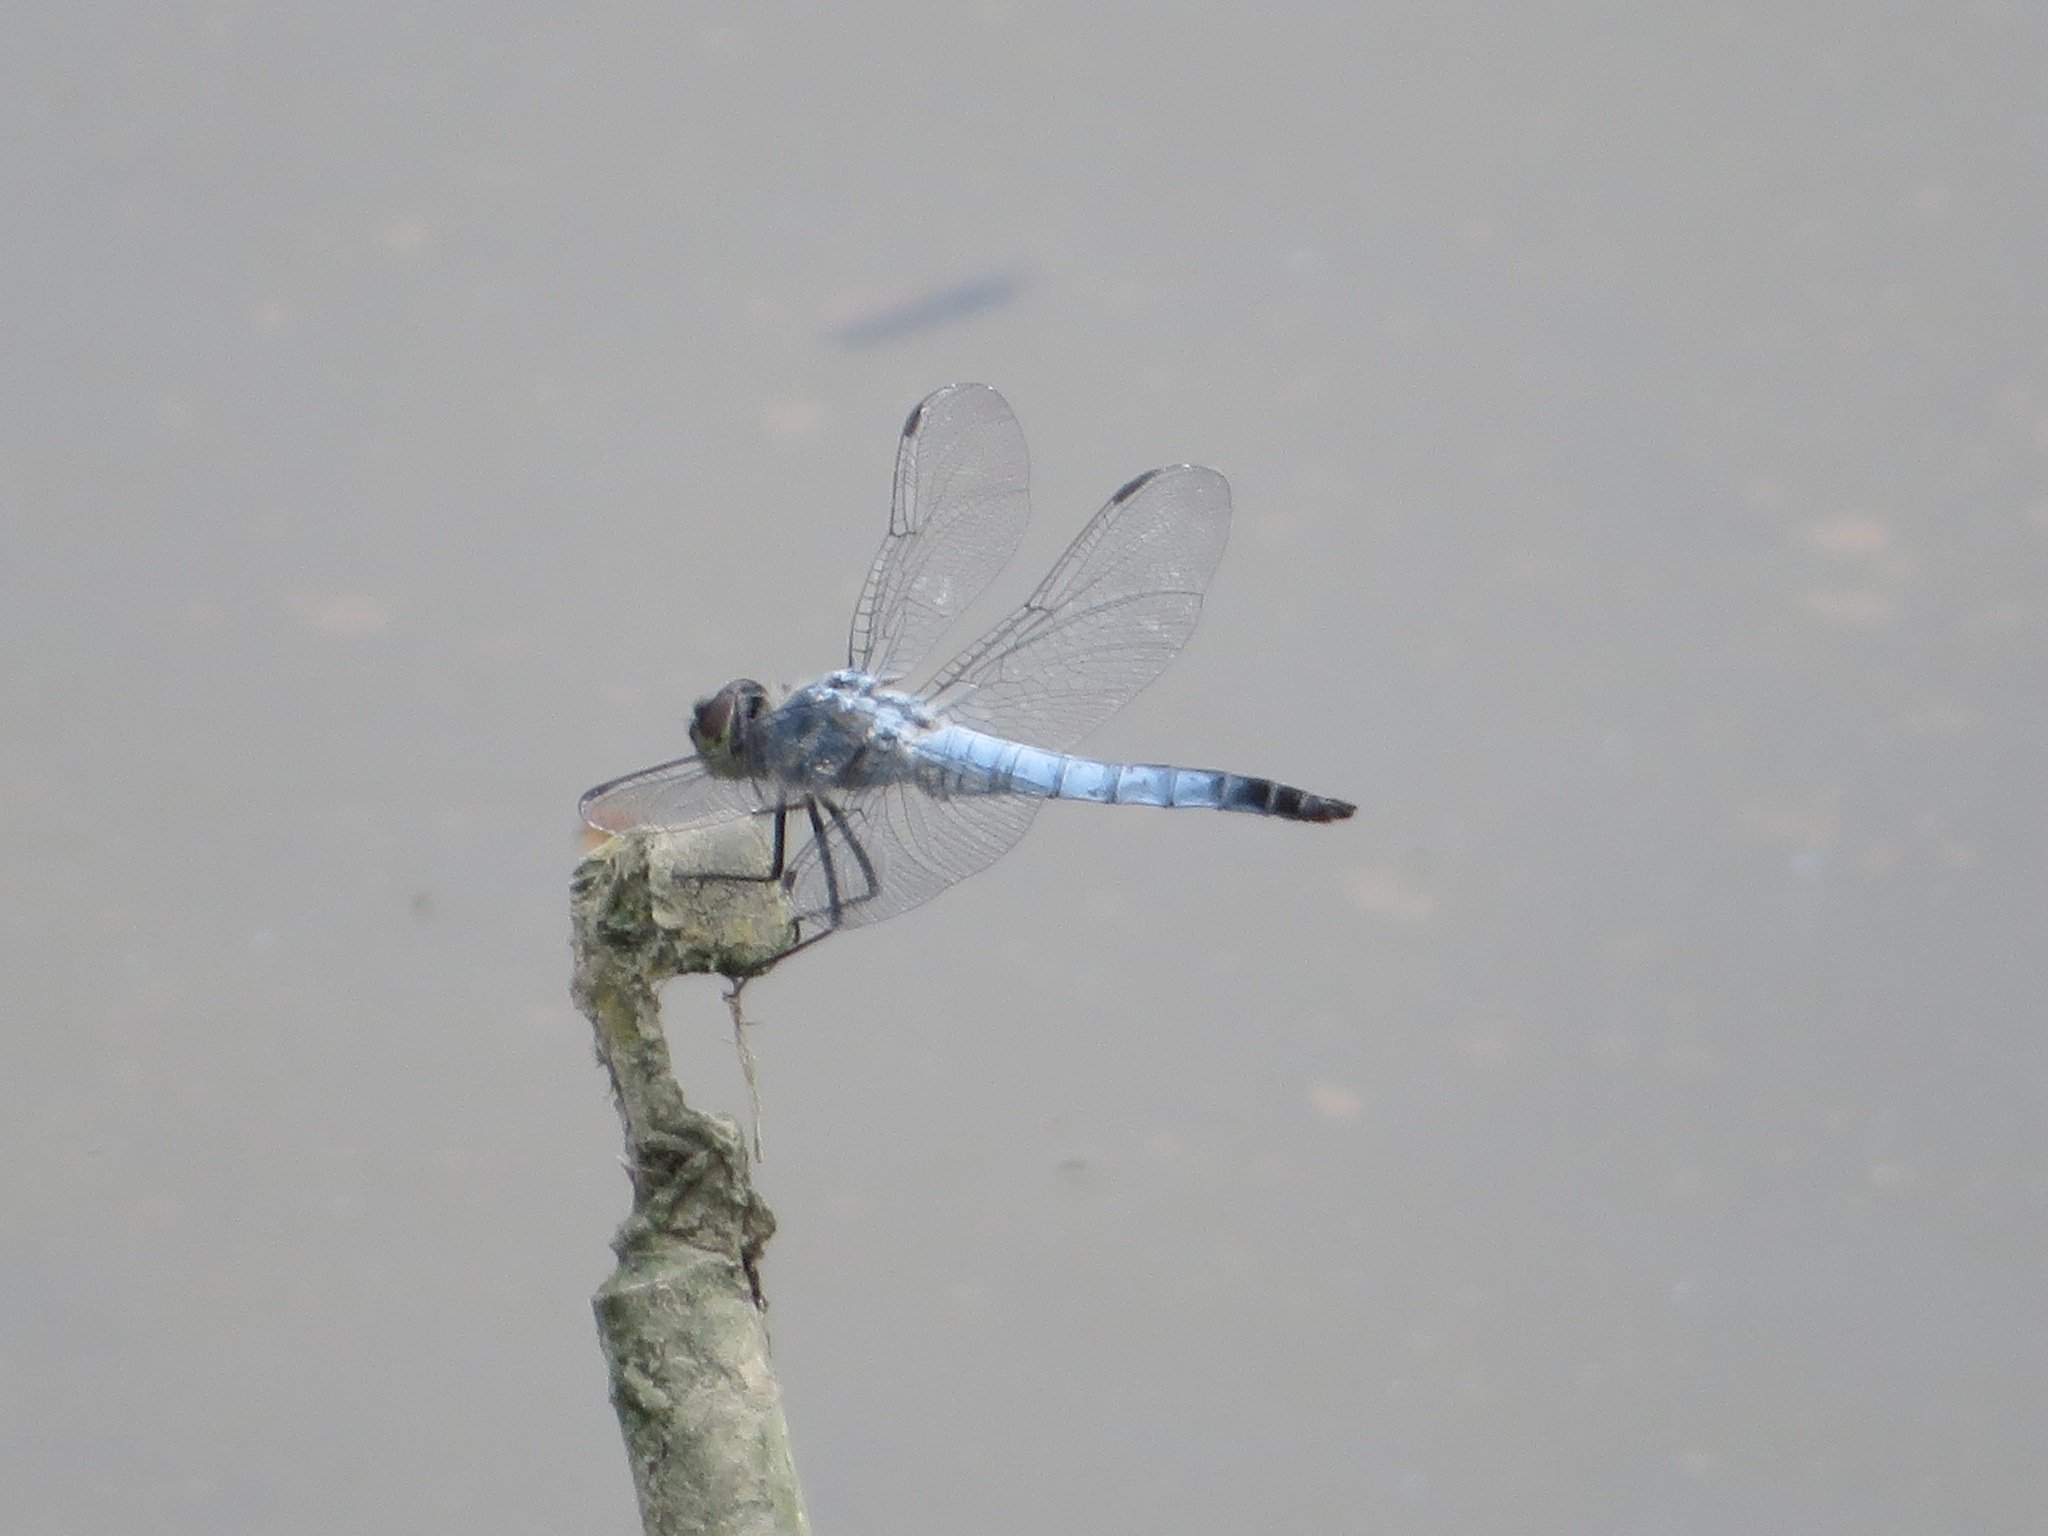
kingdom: Animalia
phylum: Arthropoda
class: Insecta
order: Odonata
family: Libellulidae
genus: Deielia
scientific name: Deielia phaon
